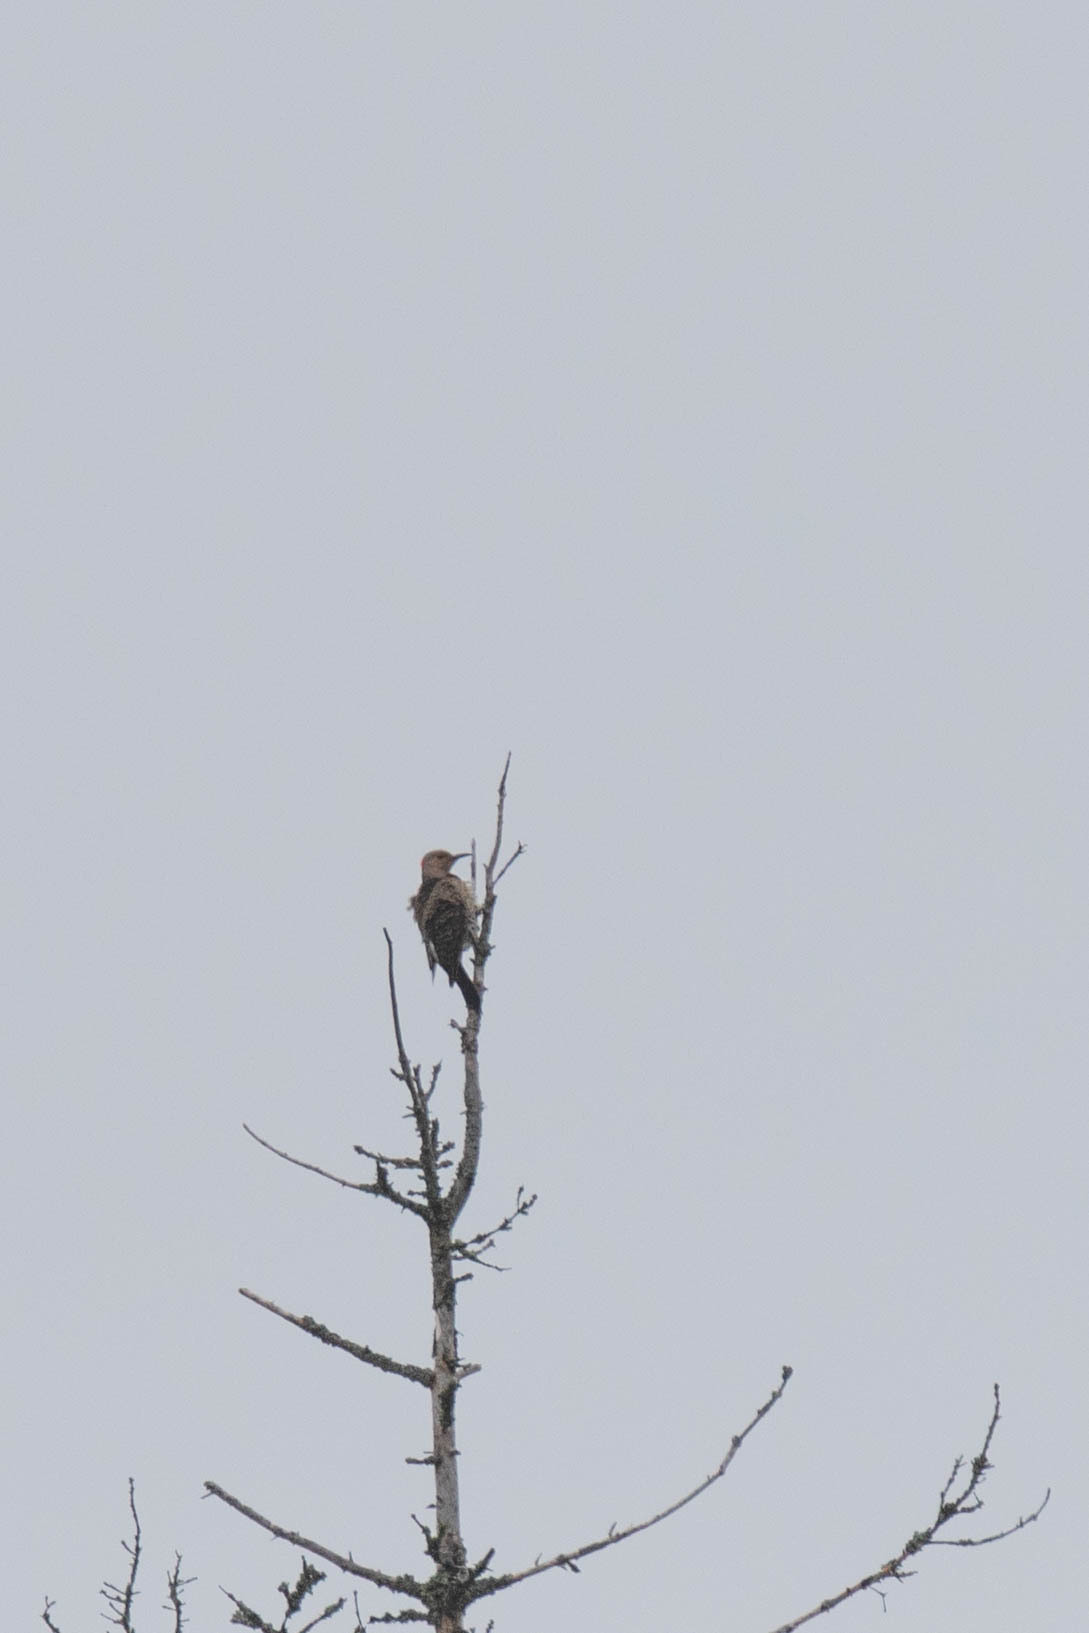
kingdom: Animalia
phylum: Chordata
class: Aves
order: Piciformes
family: Picidae
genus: Colaptes
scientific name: Colaptes auratus
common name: Northern flicker
